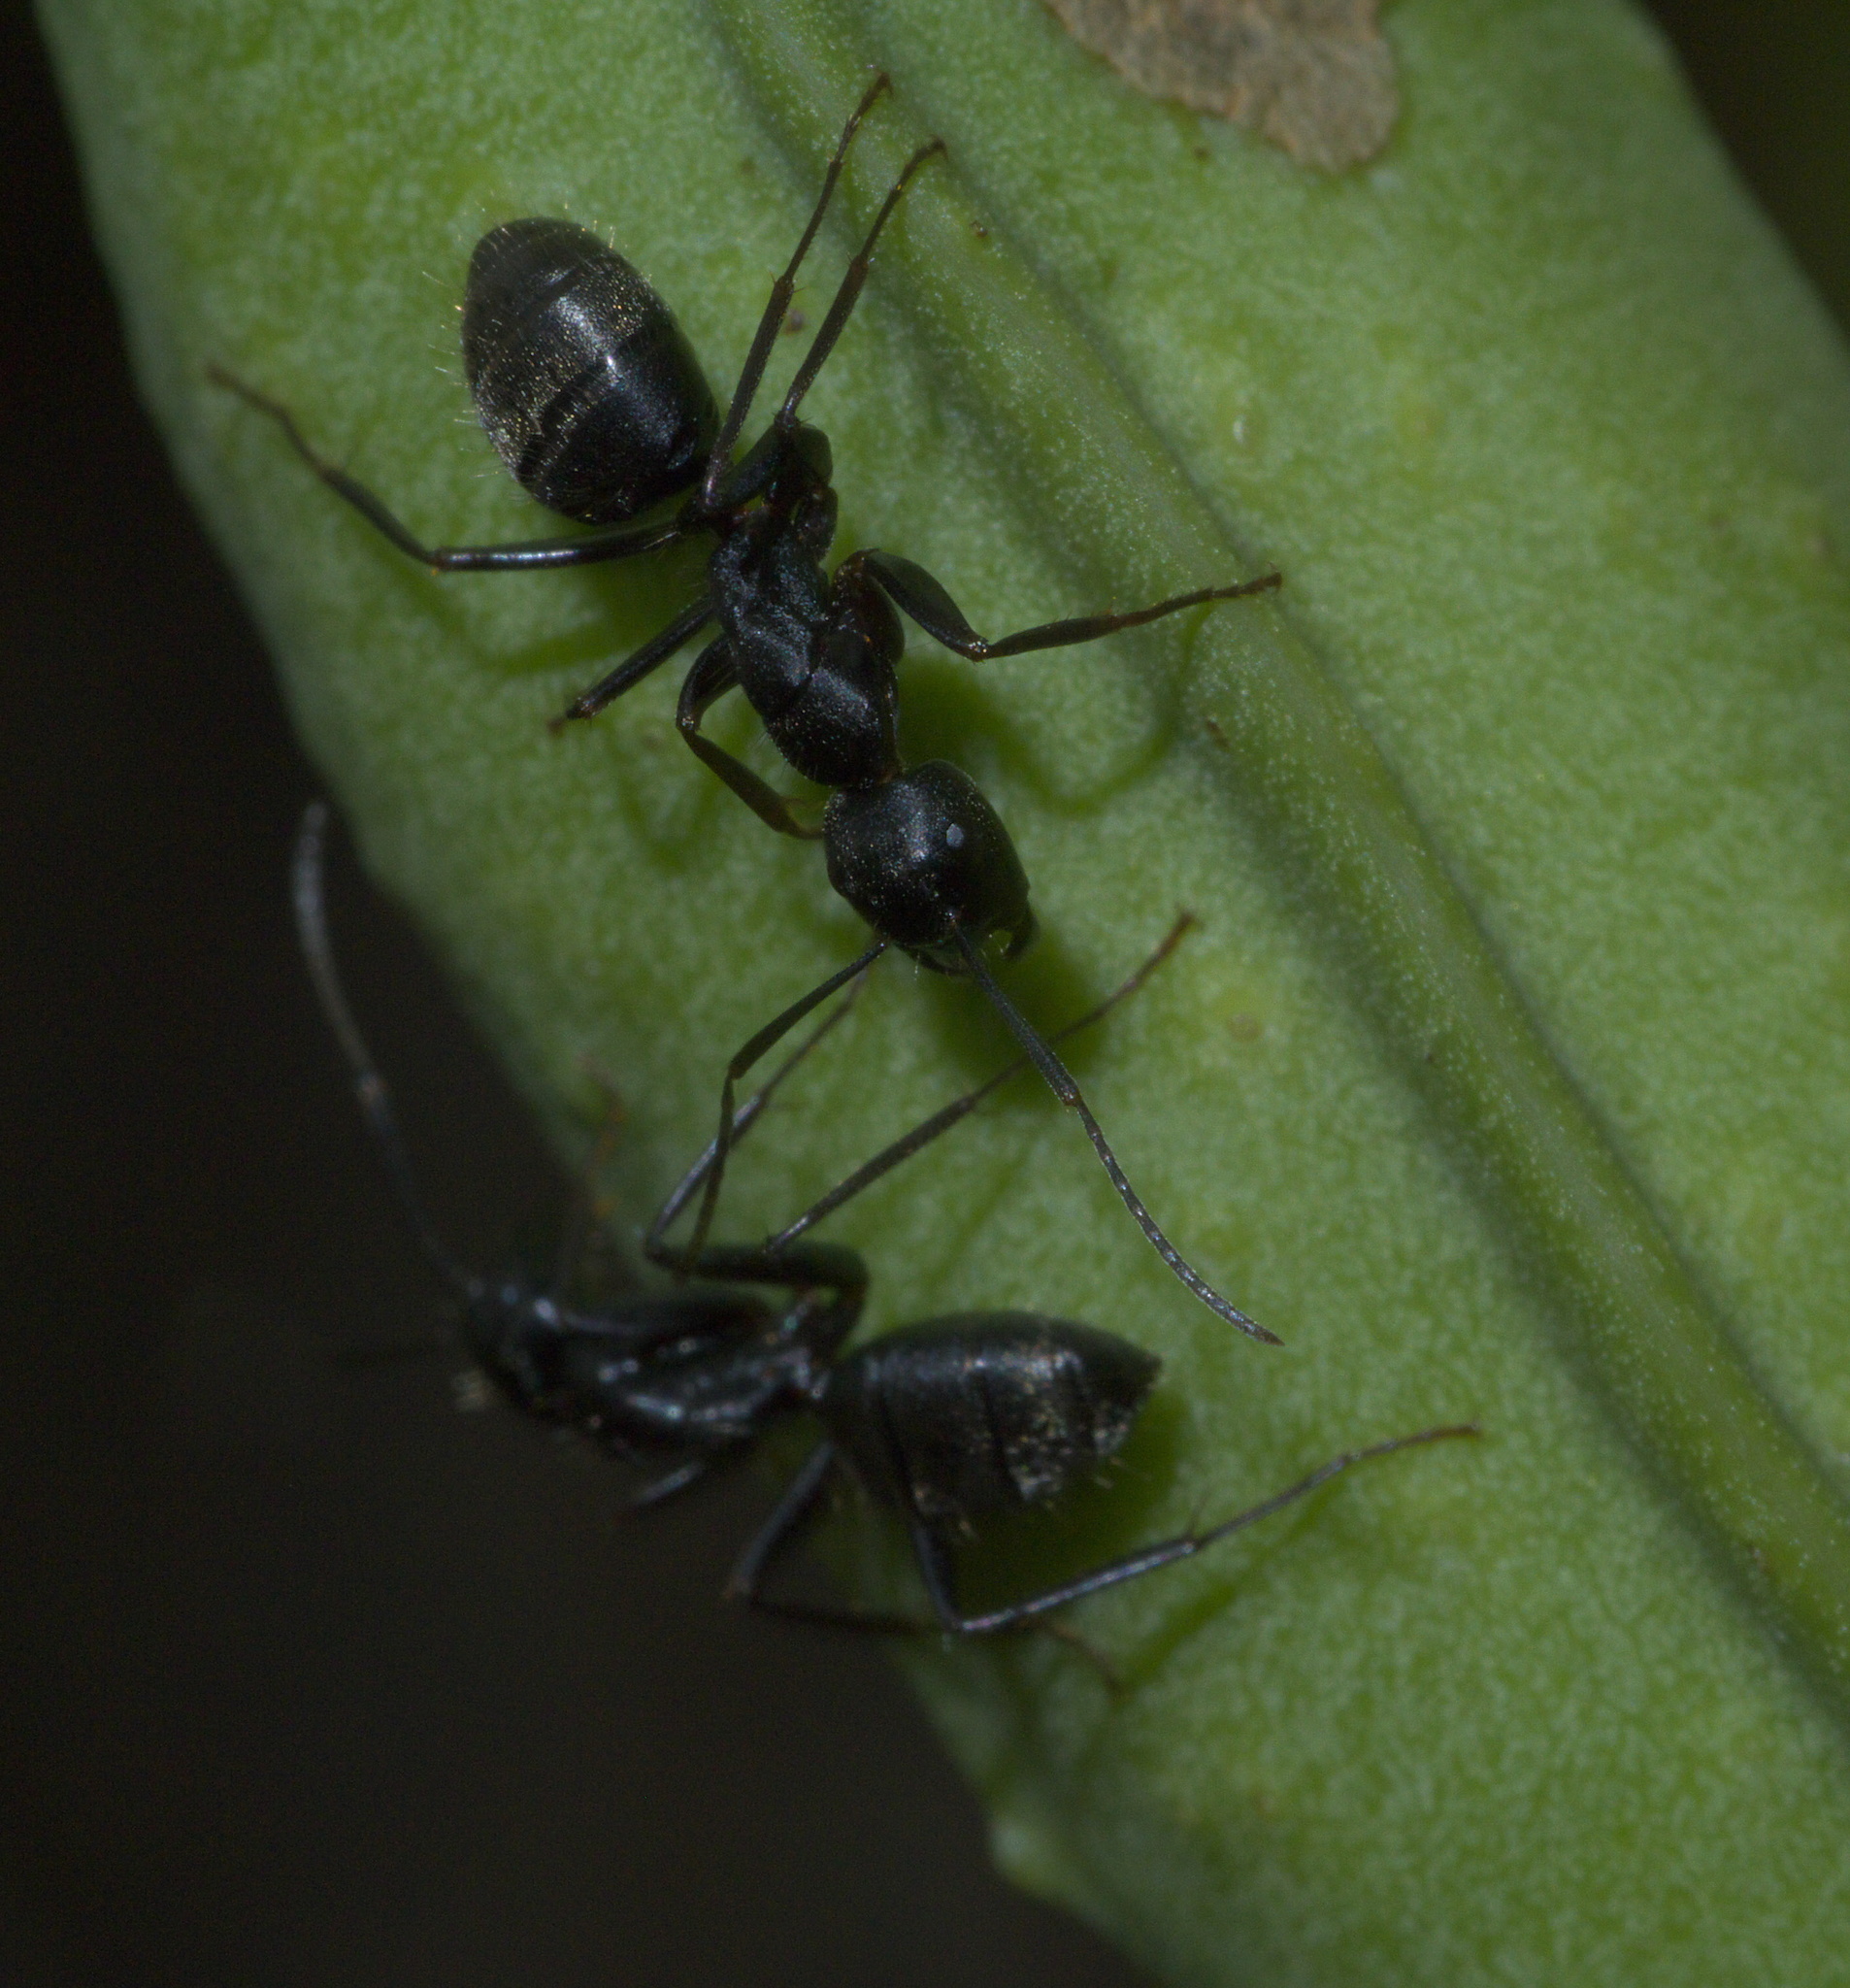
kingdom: Animalia
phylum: Arthropoda
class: Insecta
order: Hymenoptera
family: Formicidae
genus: Camponotus
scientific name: Camponotus pennsylvanicus
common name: Black carpenter ant
